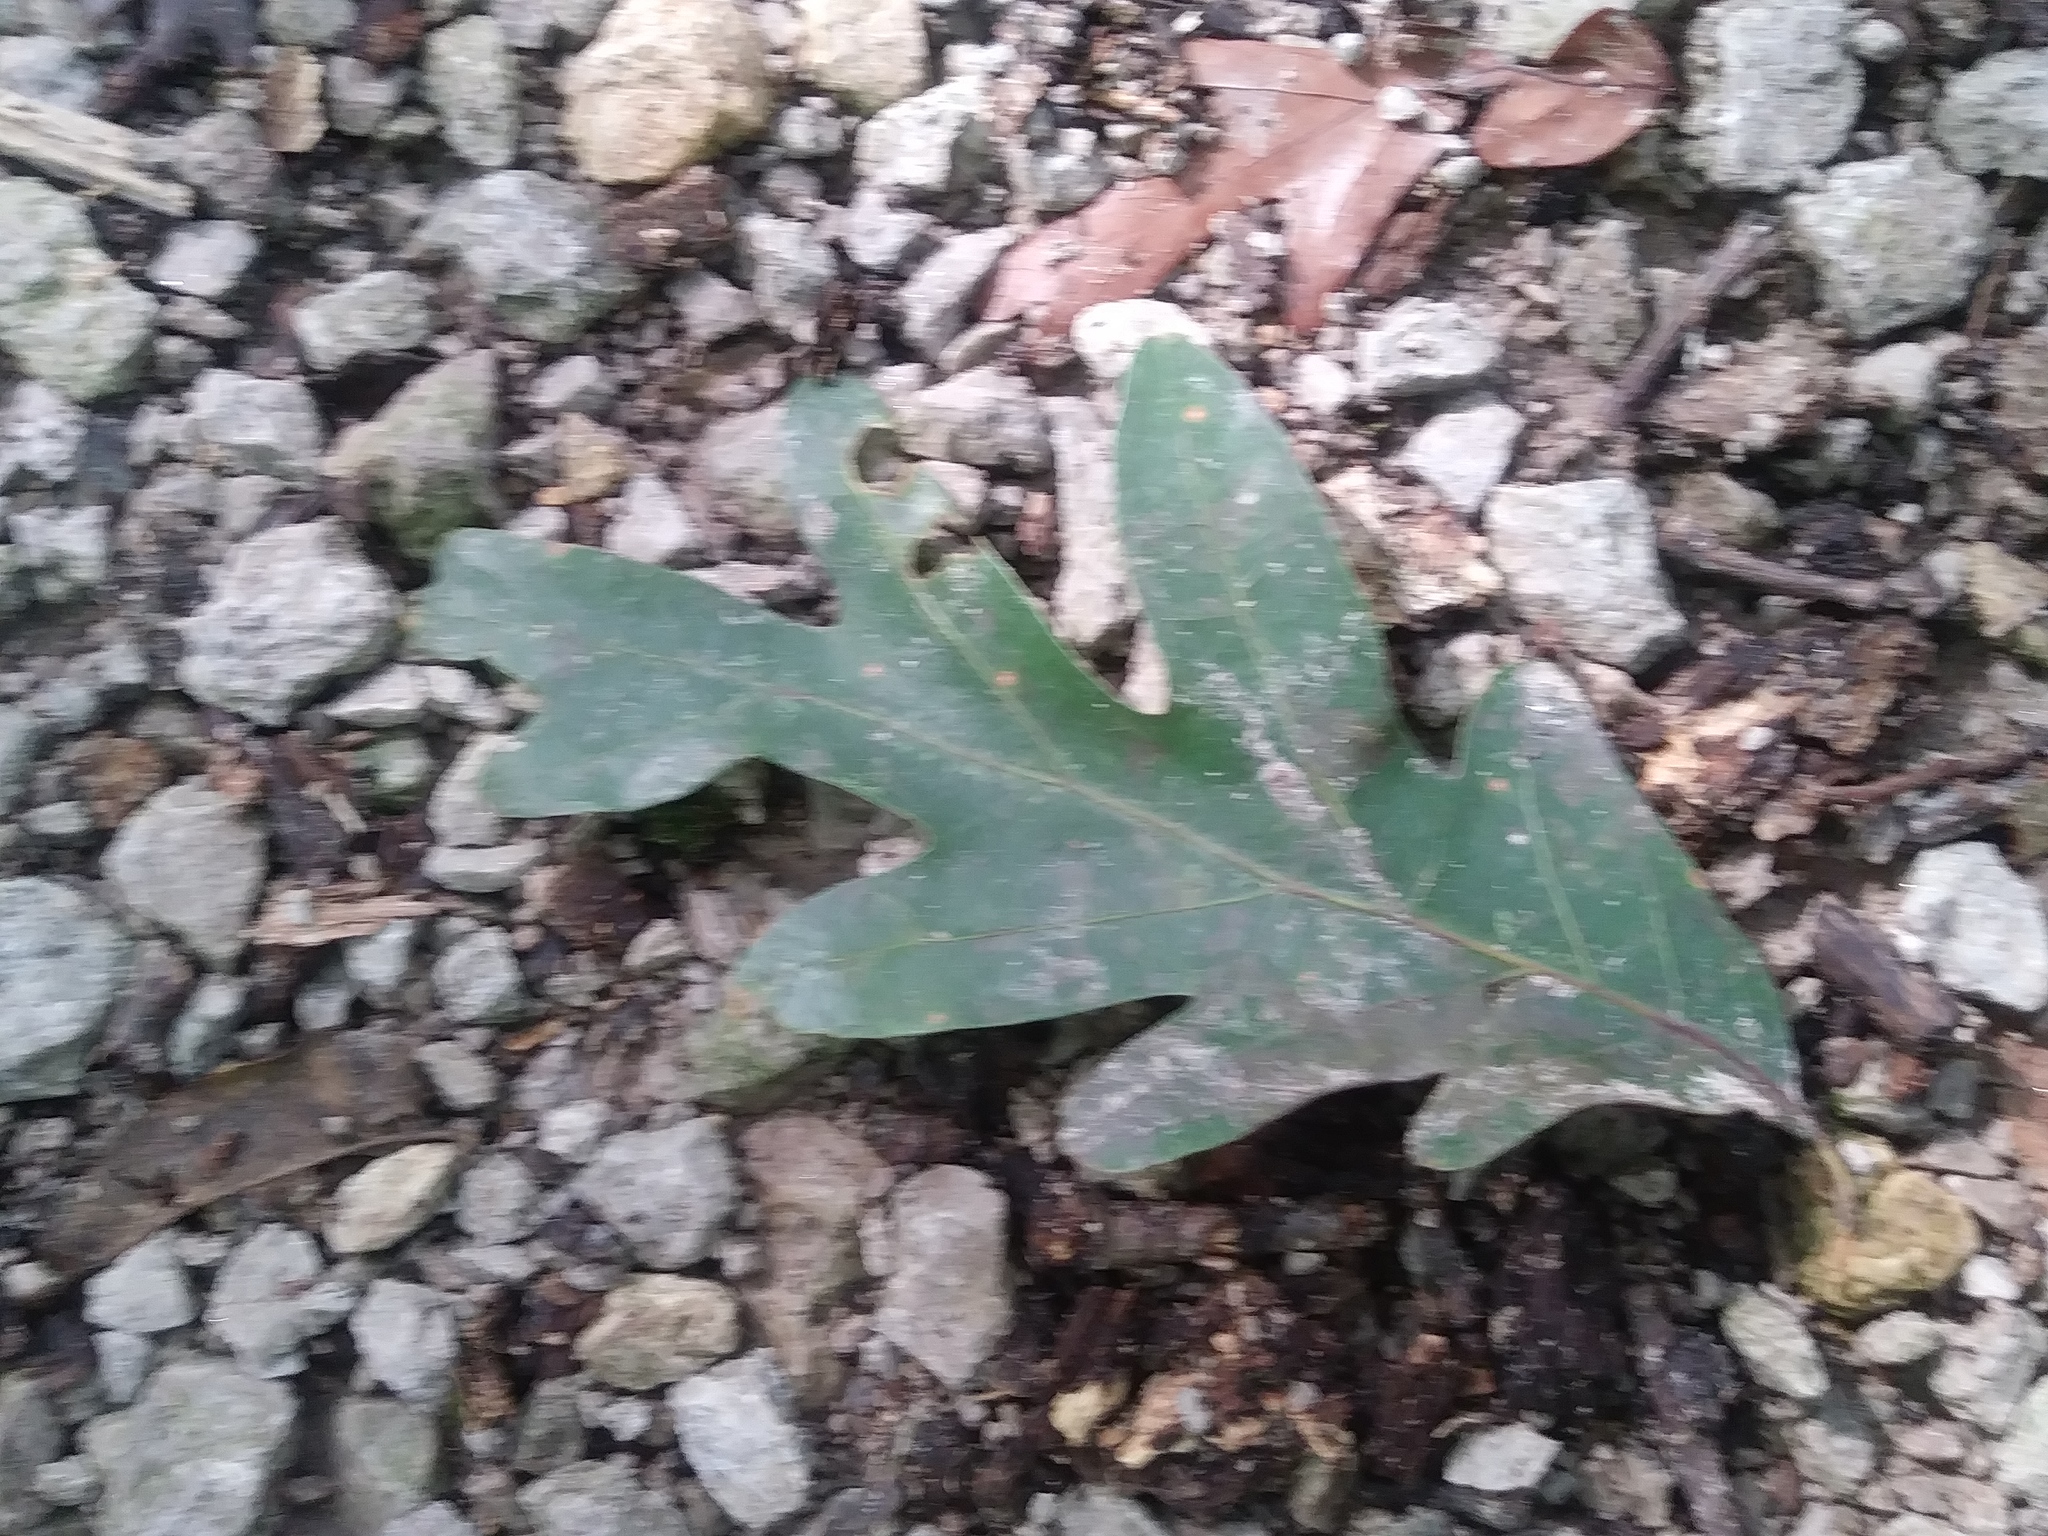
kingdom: Plantae
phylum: Tracheophyta
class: Magnoliopsida
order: Fagales
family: Fagaceae
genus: Quercus
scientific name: Quercus alba
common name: White oak
